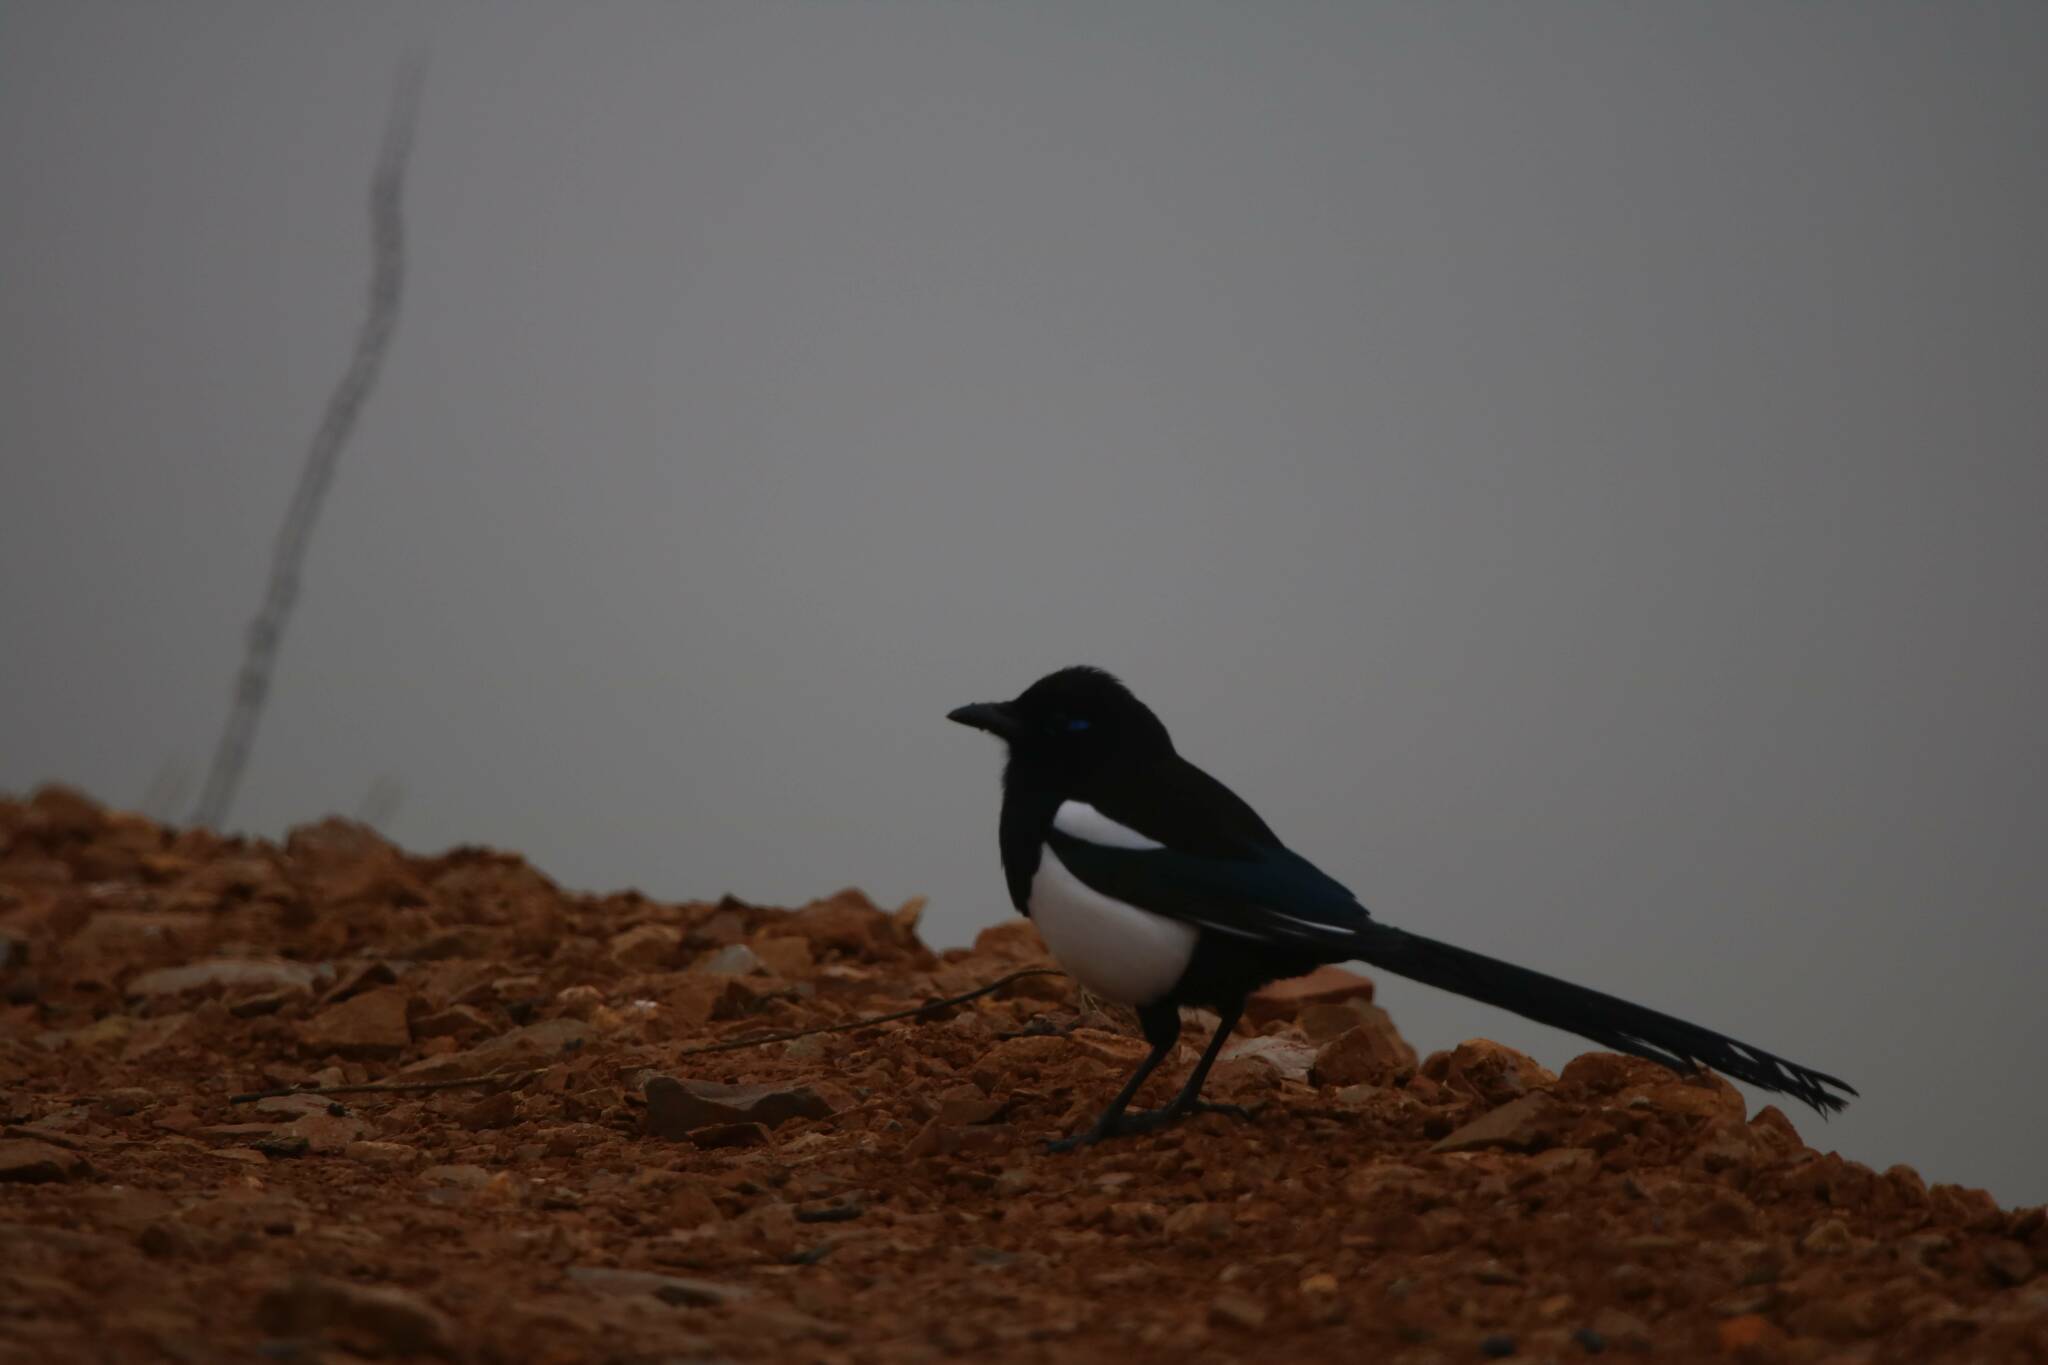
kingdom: Animalia
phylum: Chordata
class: Aves
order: Passeriformes
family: Corvidae
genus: Pica
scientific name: Pica mauritanica
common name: Maghreb magpie
